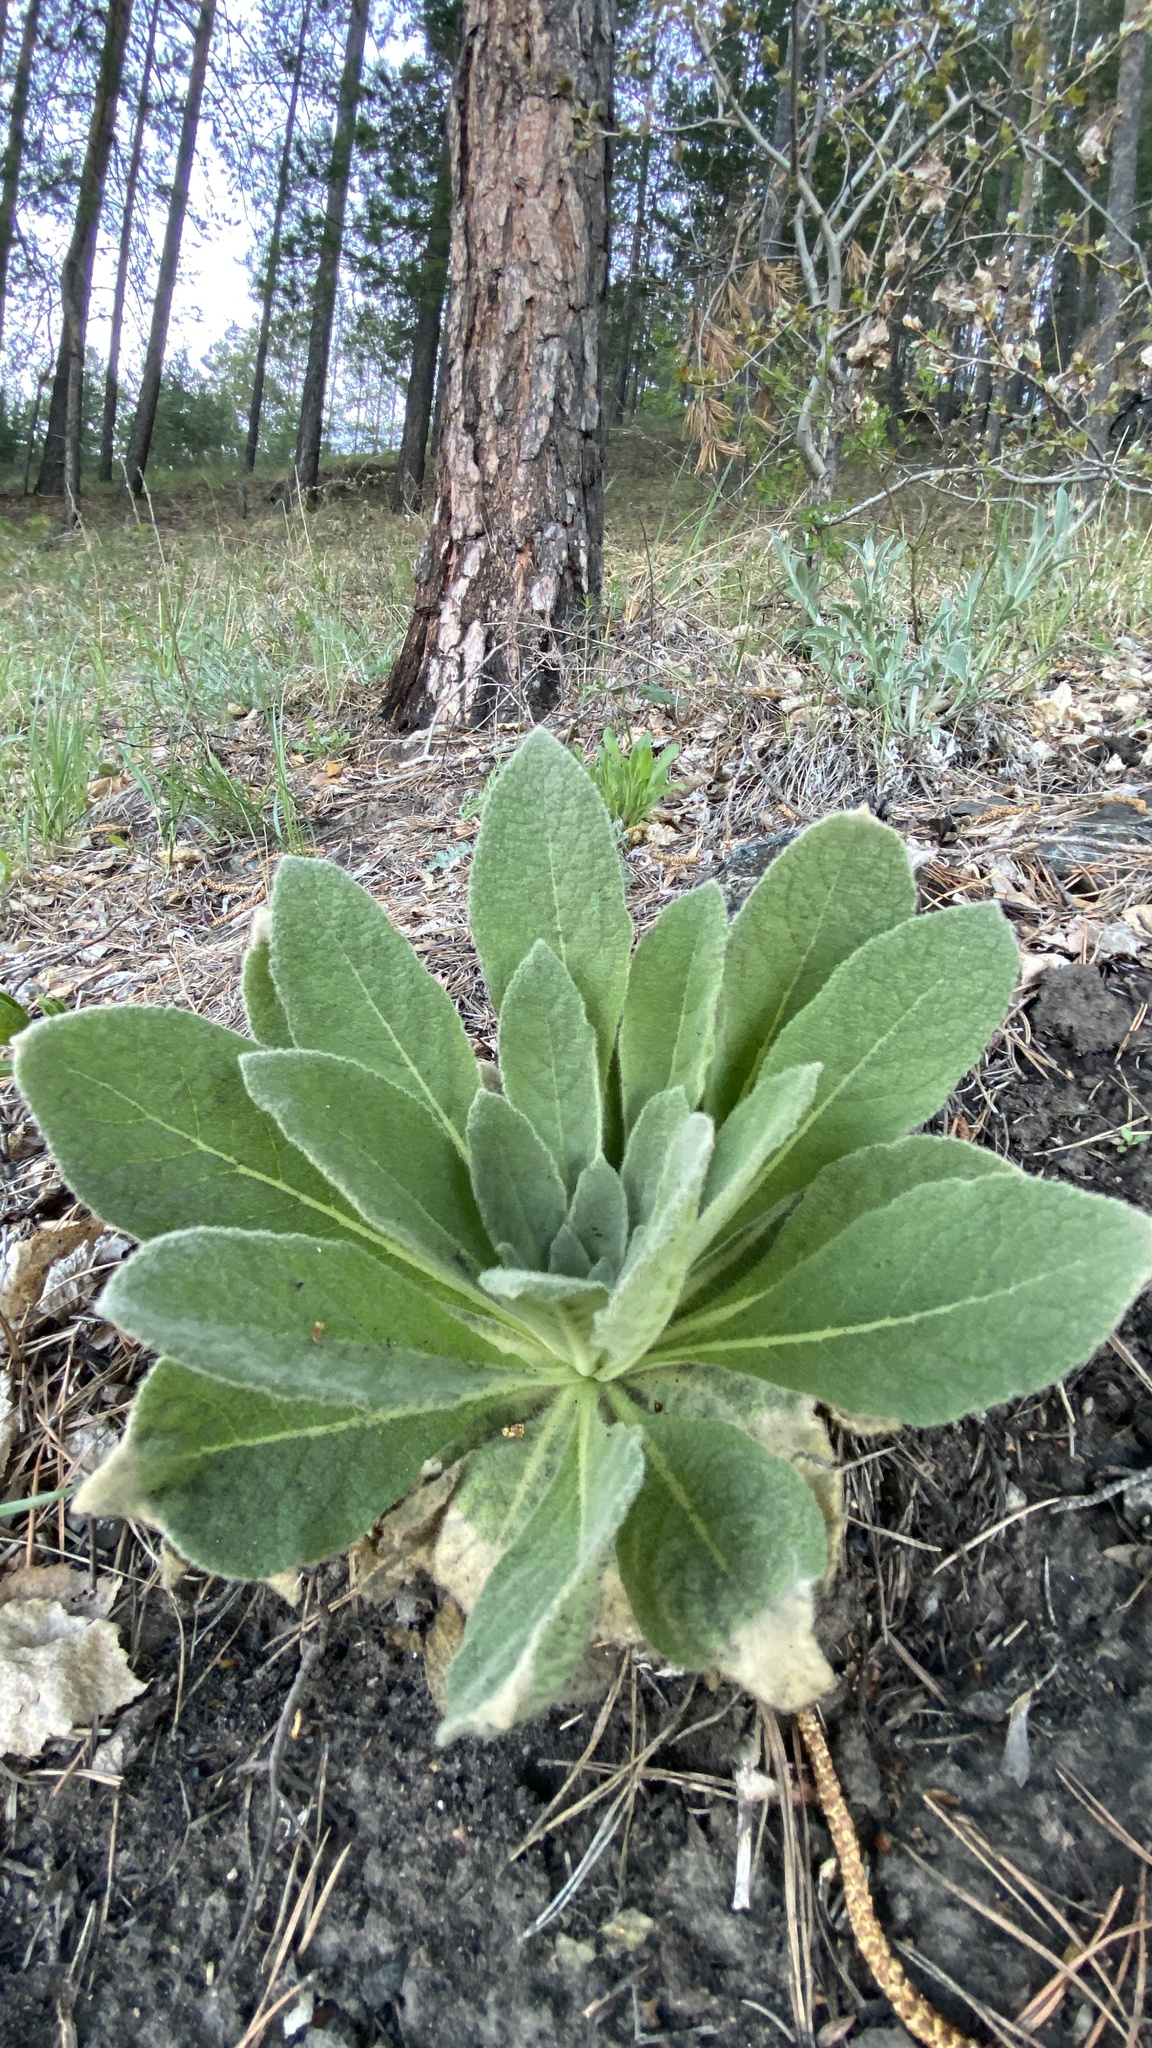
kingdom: Plantae
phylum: Tracheophyta
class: Magnoliopsida
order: Lamiales
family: Scrophulariaceae
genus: Verbascum
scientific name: Verbascum thapsus
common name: Common mullein
